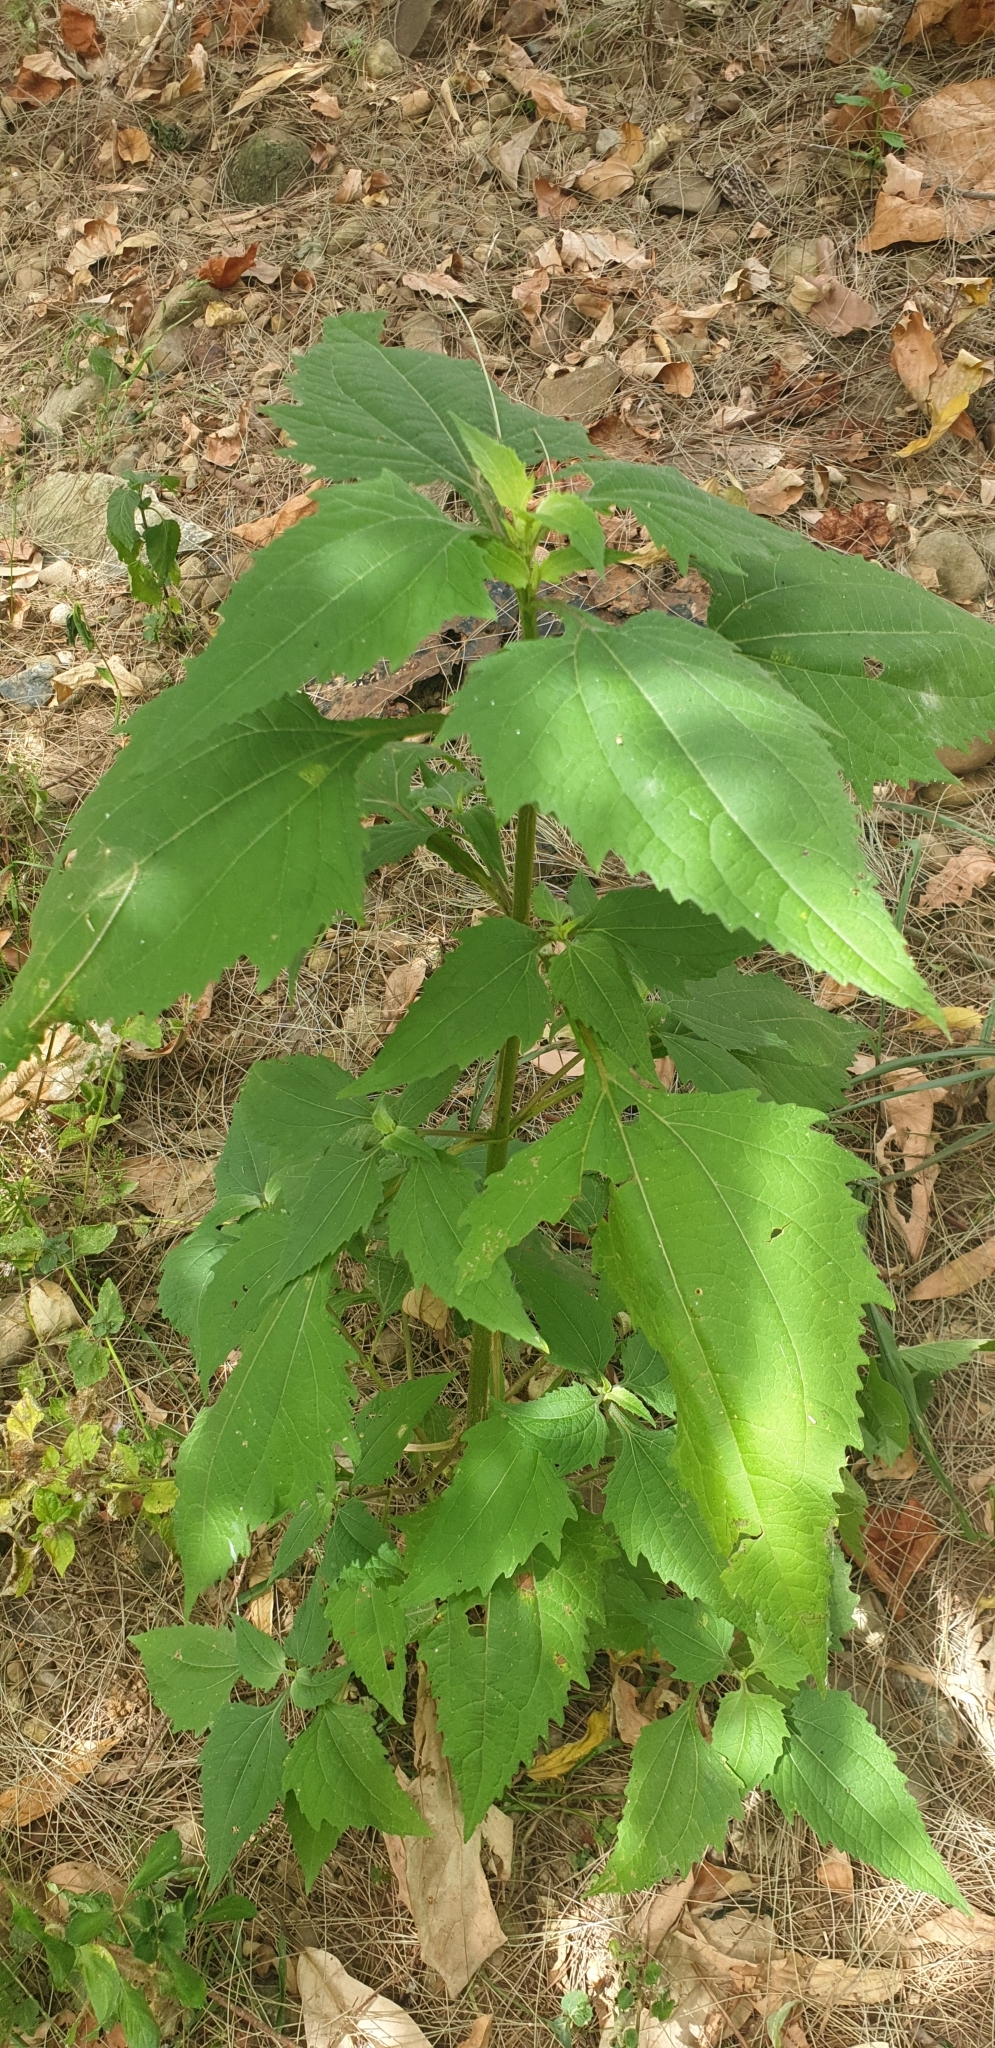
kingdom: Plantae
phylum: Tracheophyta
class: Magnoliopsida
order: Asterales
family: Asteraceae
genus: Sigesbeckia
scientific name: Sigesbeckia orientalis
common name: Eastern st paul's-wort
